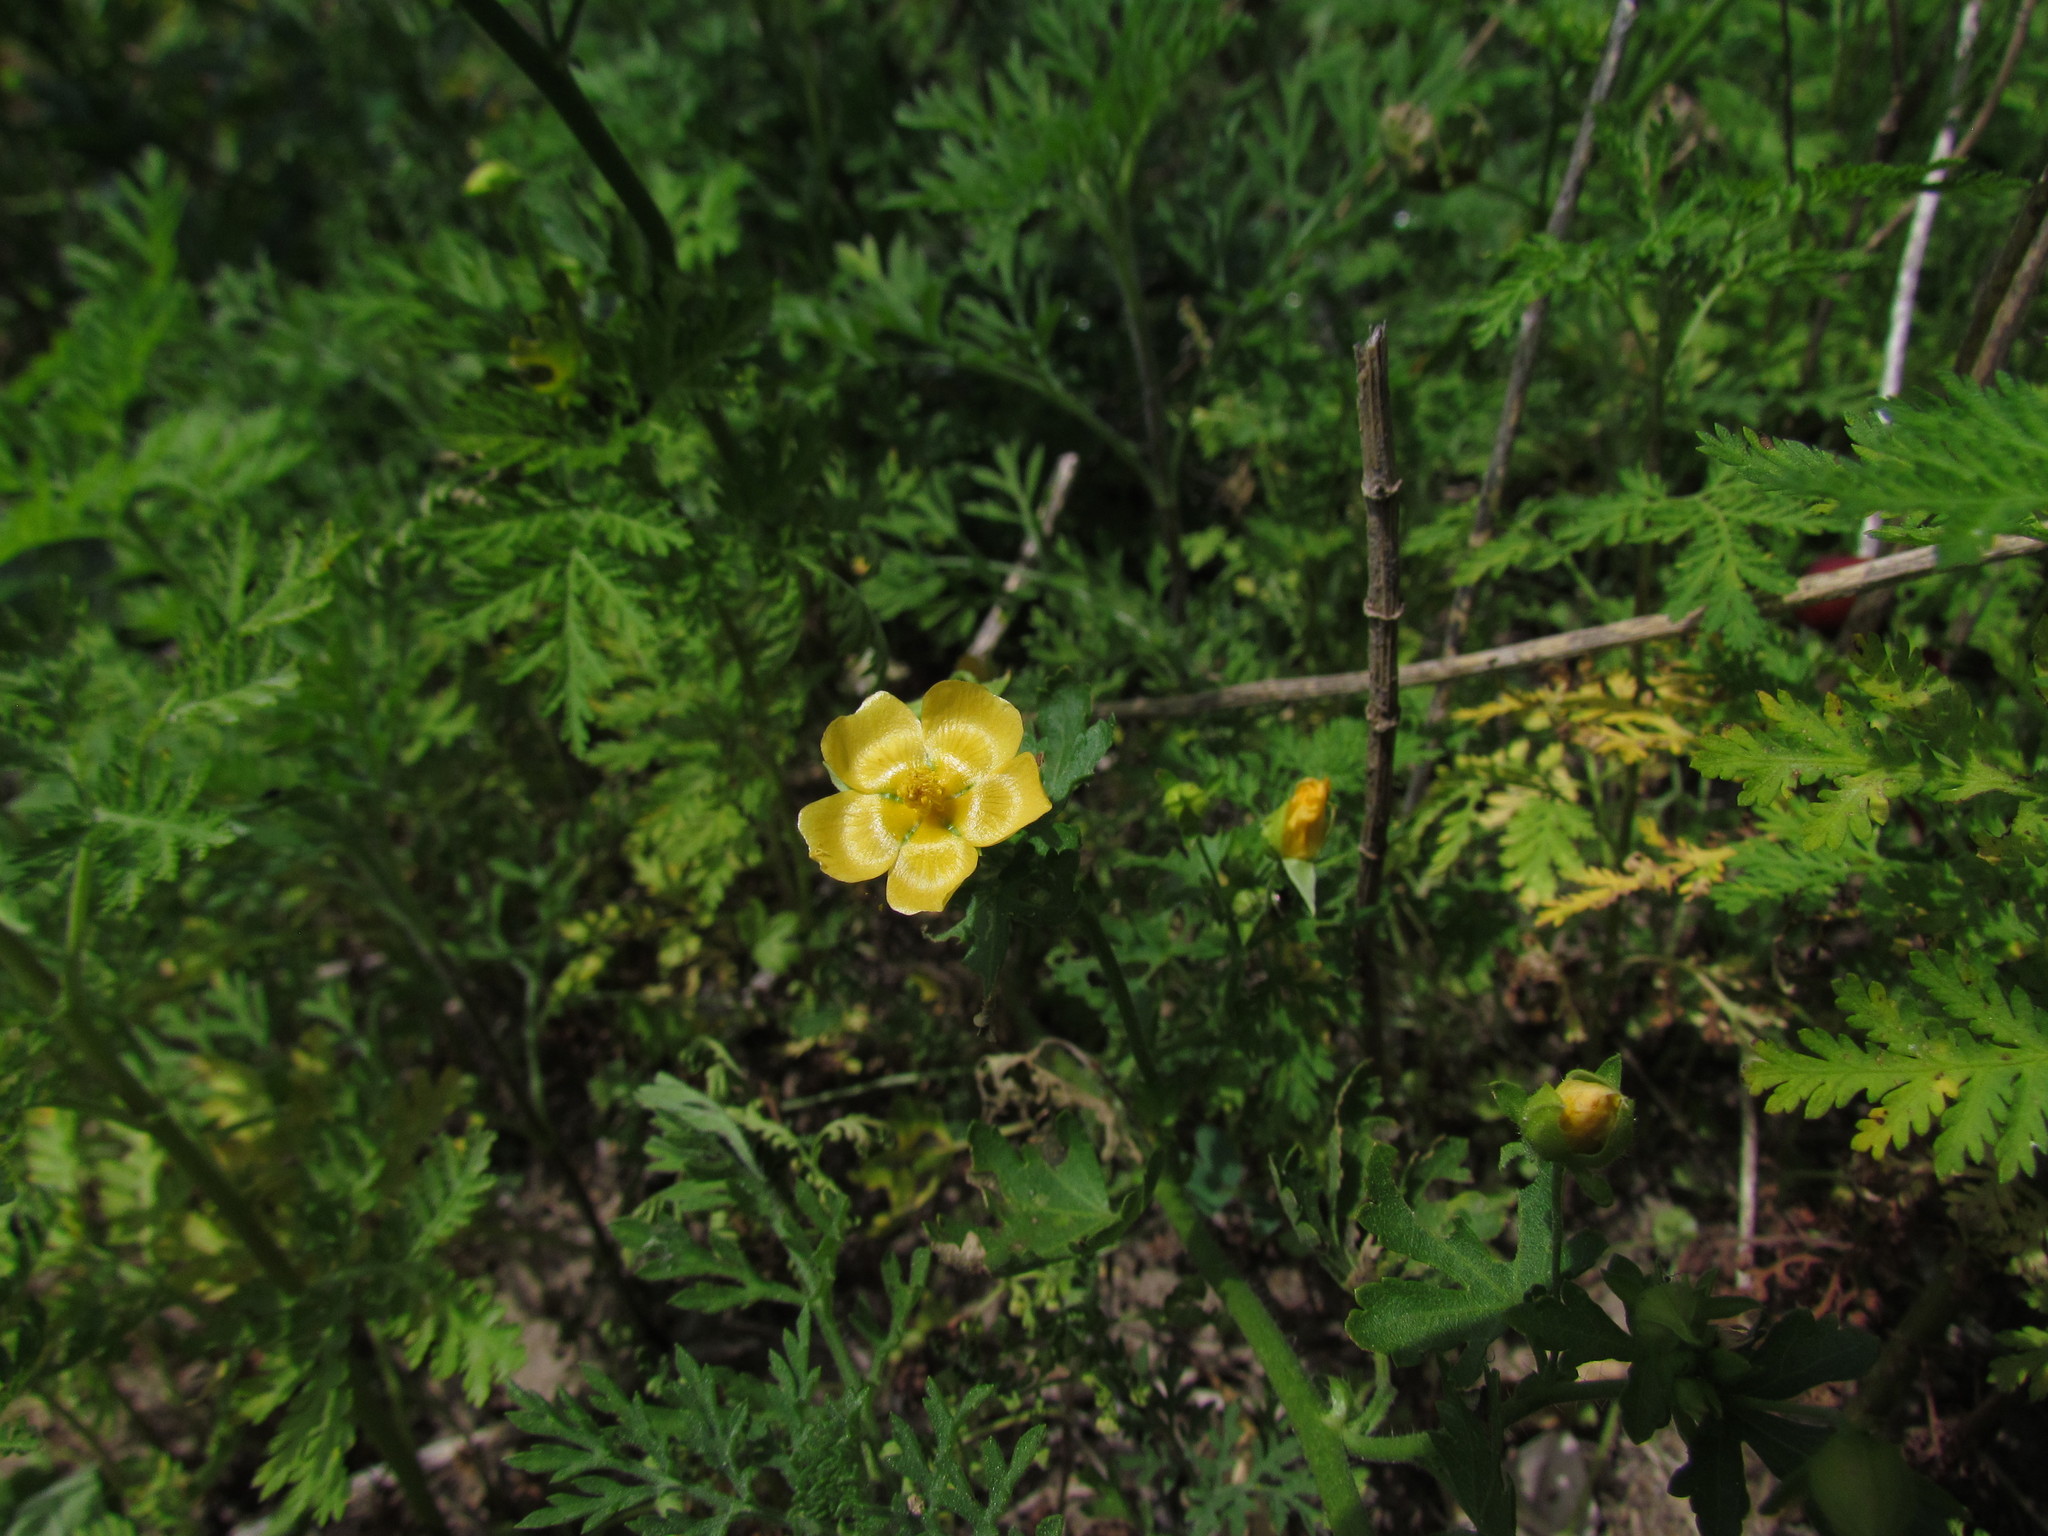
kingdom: Plantae
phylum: Tracheophyta
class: Magnoliopsida
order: Malvales
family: Malvaceae
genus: Modiolastrum
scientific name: Modiolastrum malvifolium
